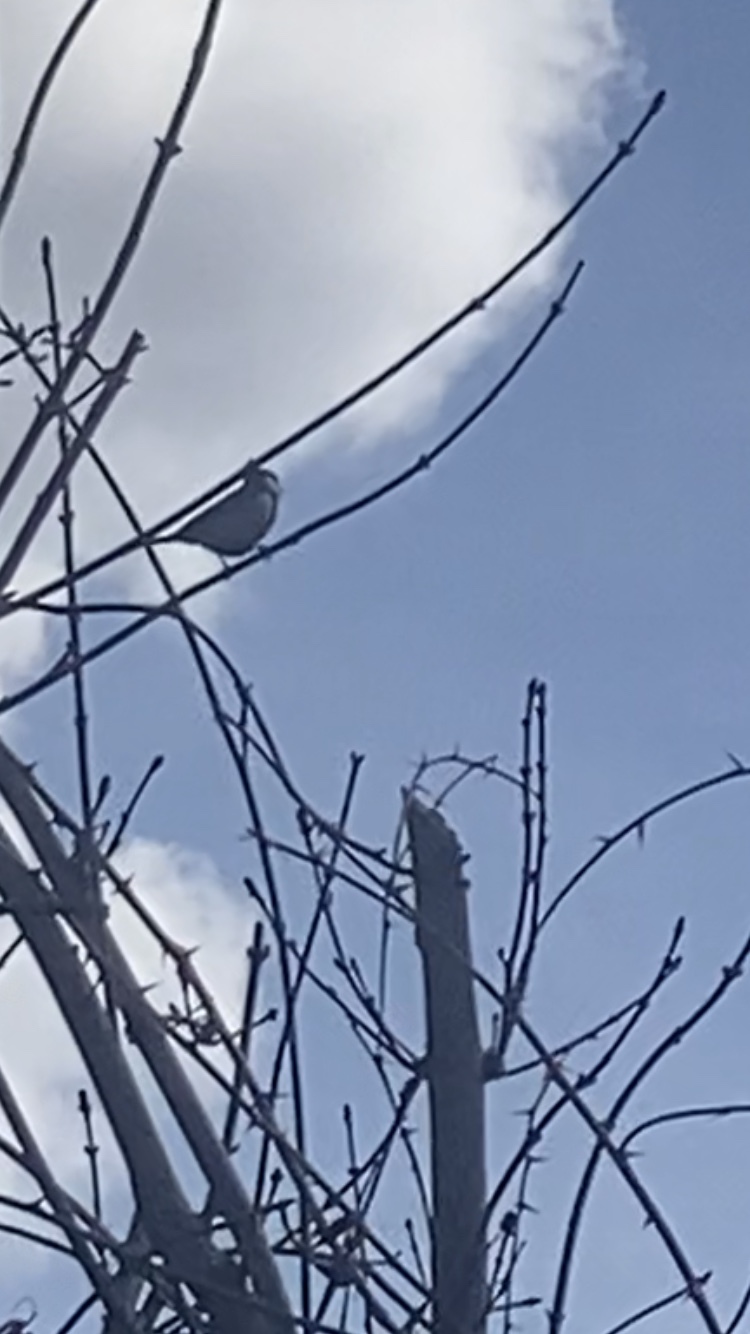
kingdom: Animalia
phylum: Chordata
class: Aves
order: Passeriformes
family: Paridae
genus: Parus
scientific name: Parus major
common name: Great tit
